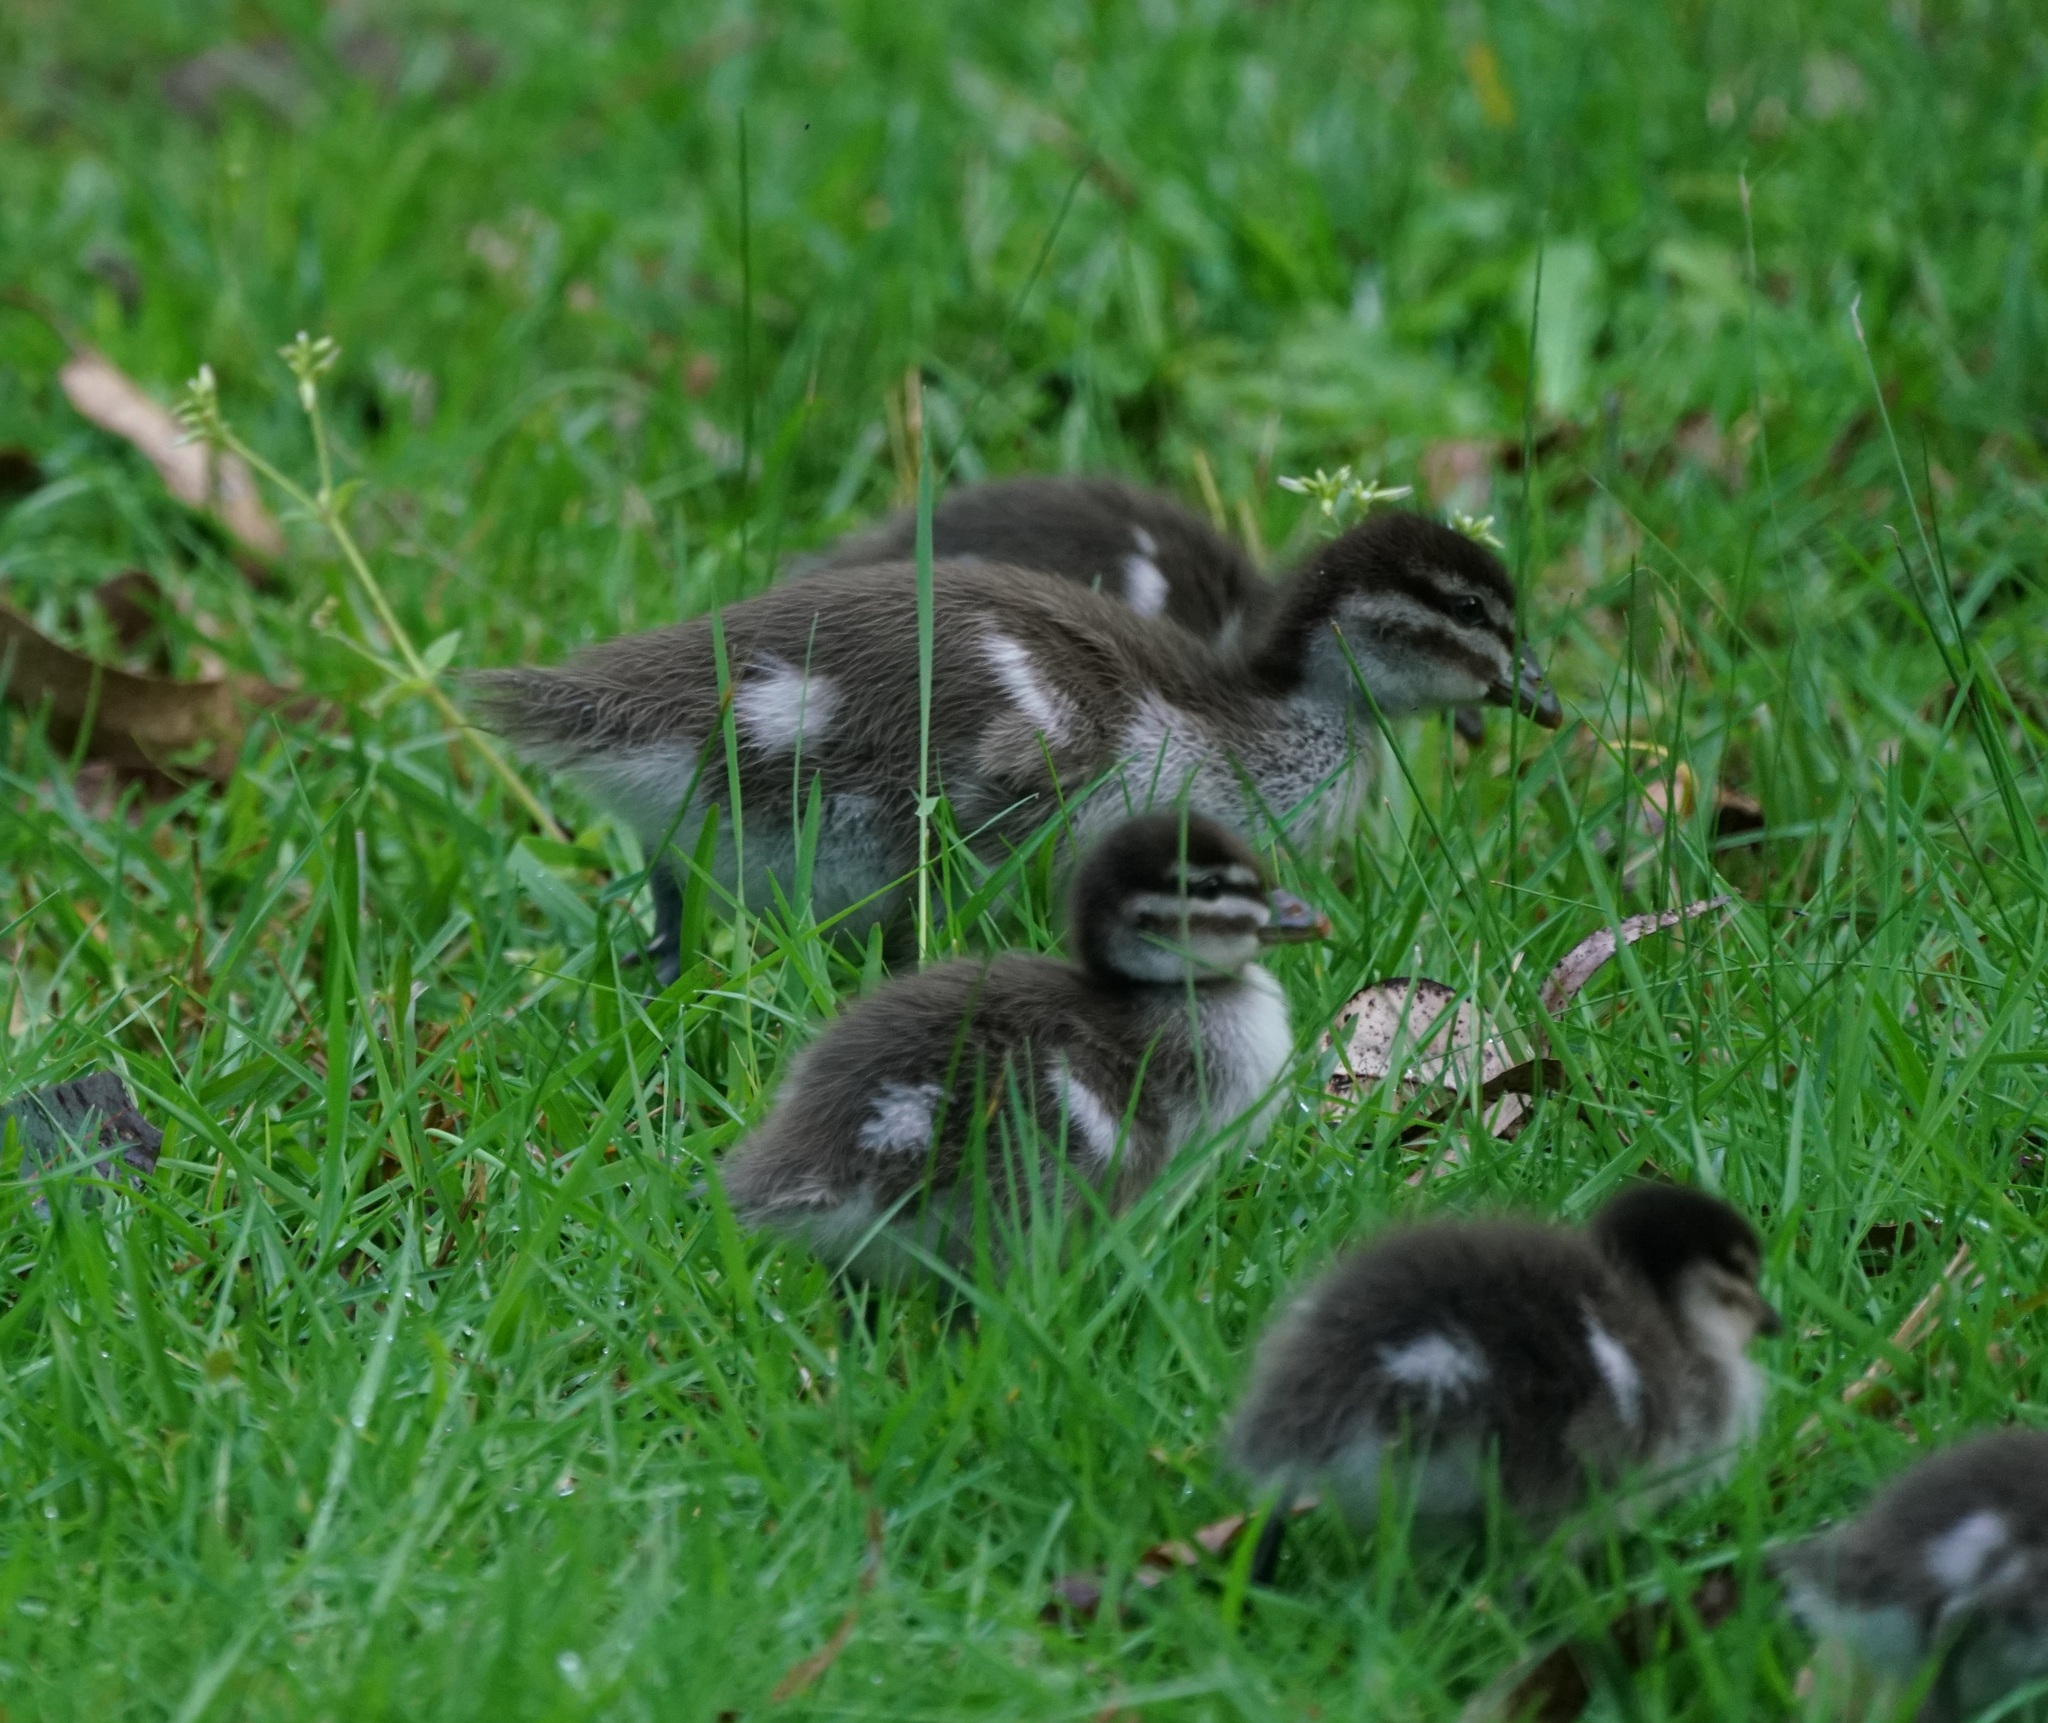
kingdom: Animalia
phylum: Chordata
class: Aves
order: Anseriformes
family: Anatidae
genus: Chenonetta
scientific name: Chenonetta jubata
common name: Maned duck
